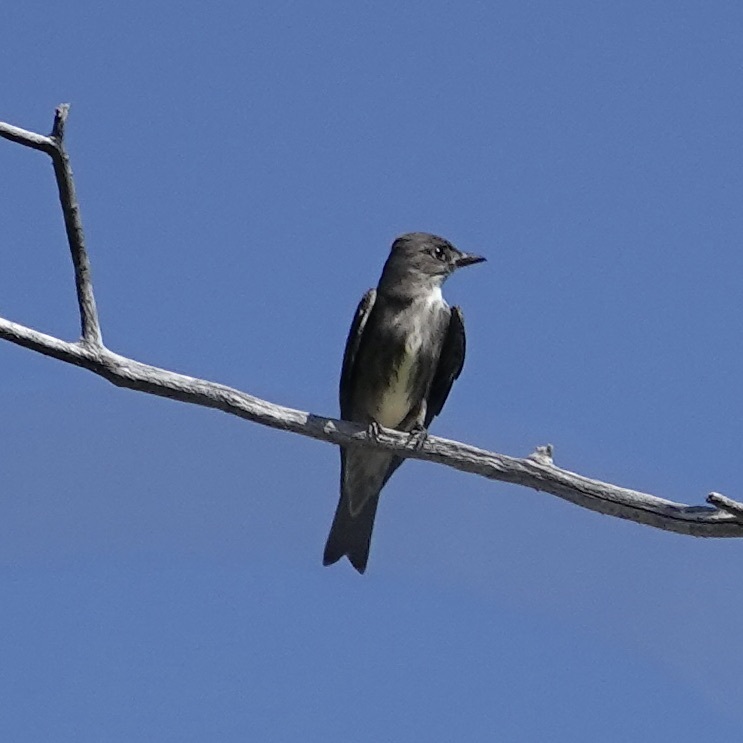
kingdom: Animalia
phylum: Chordata
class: Aves
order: Passeriformes
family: Tyrannidae
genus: Contopus
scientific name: Contopus cooperi
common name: Olive-sided flycatcher
